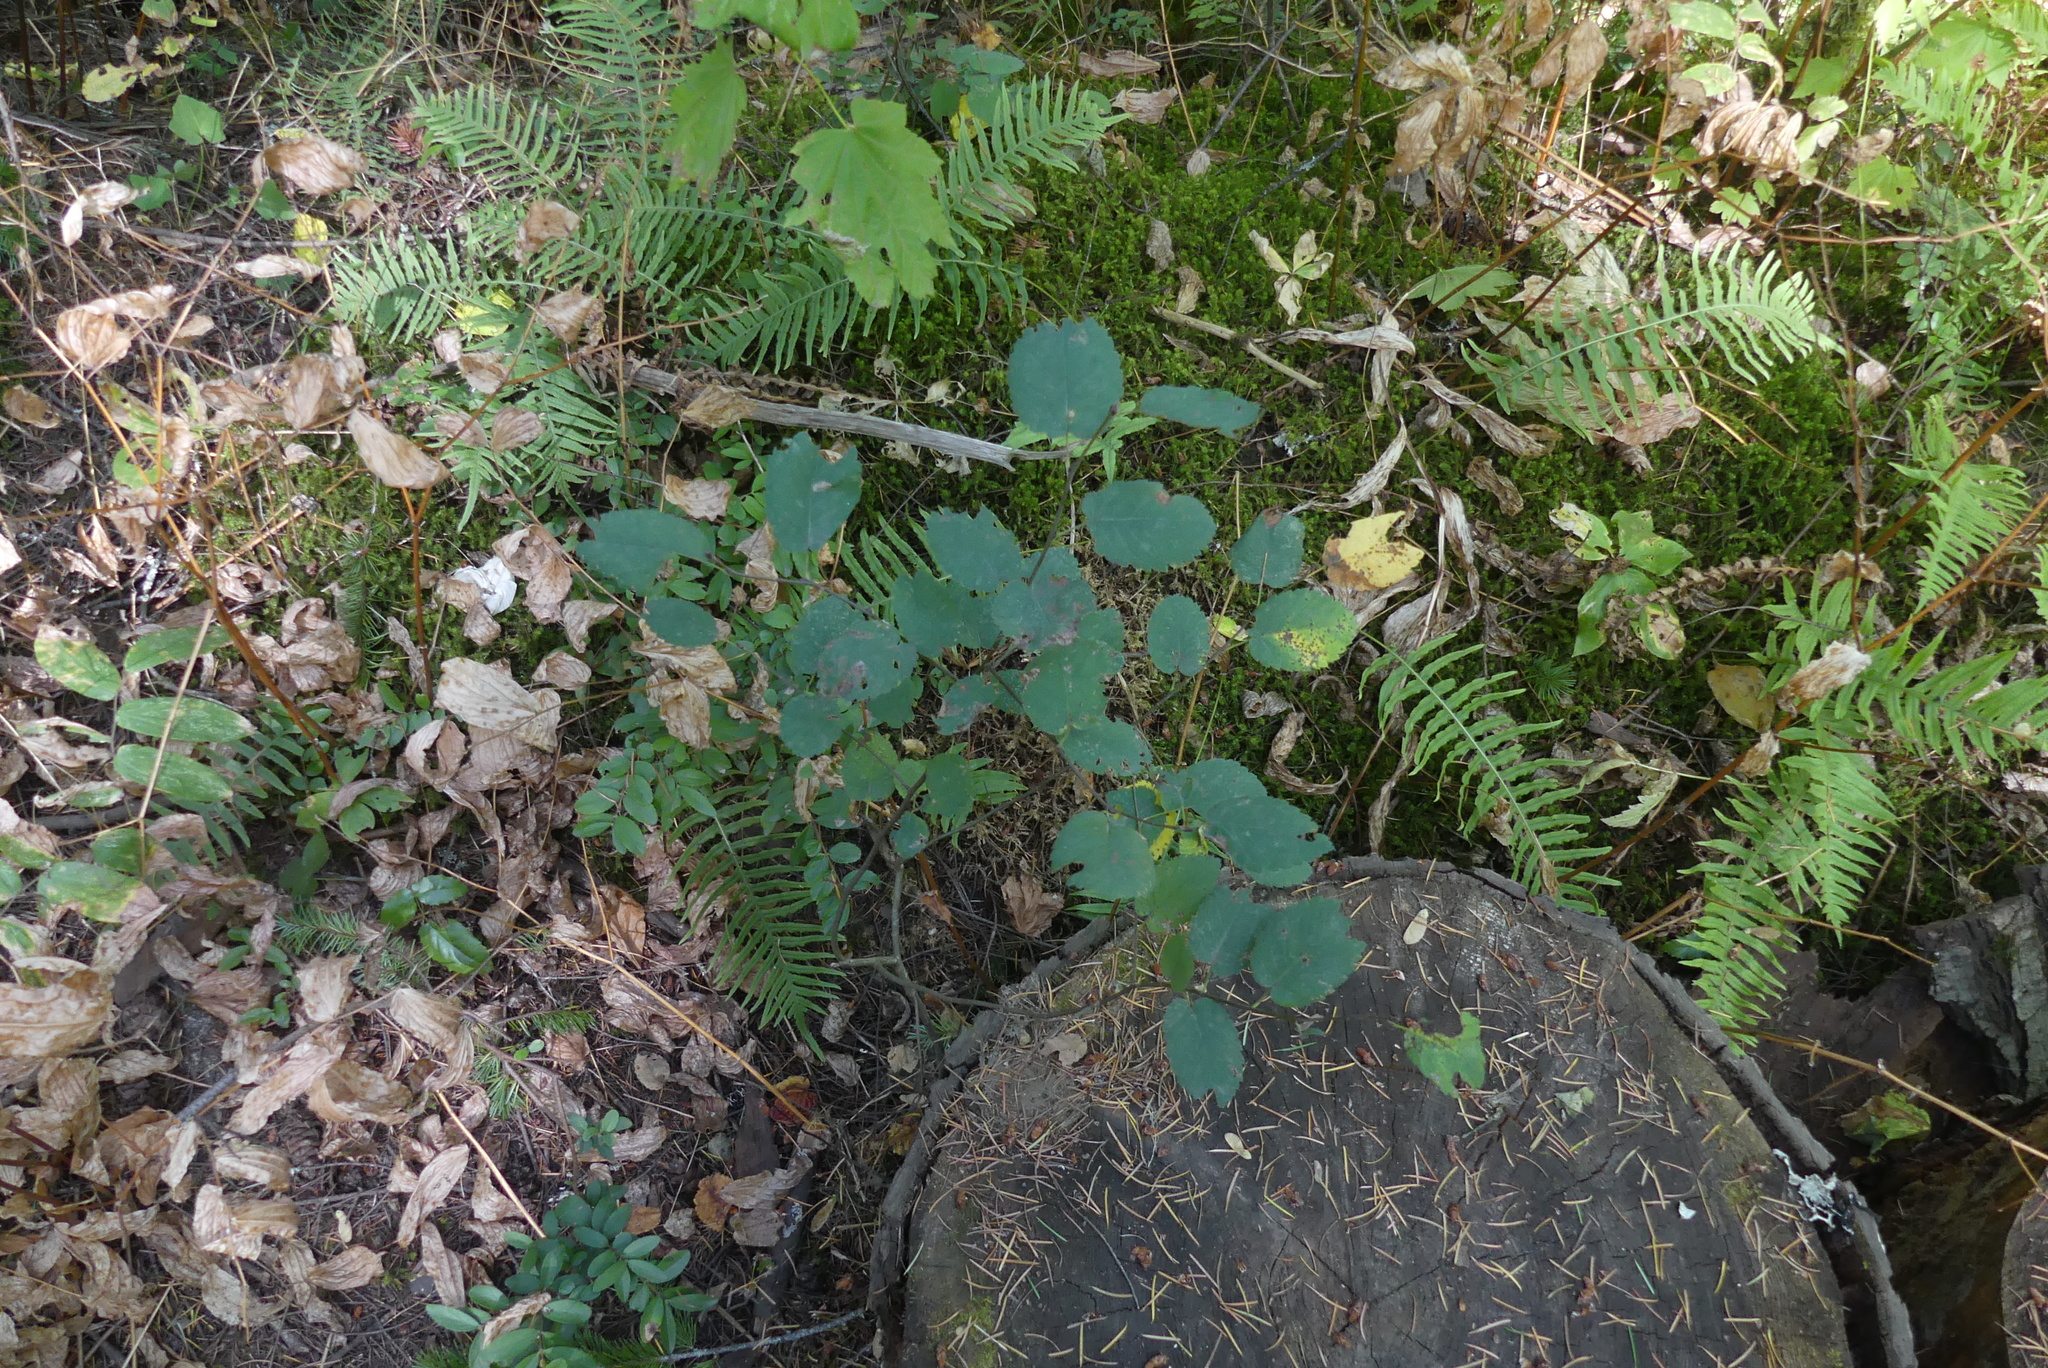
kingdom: Plantae
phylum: Tracheophyta
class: Magnoliopsida
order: Rosales
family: Rosaceae
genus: Amelanchier
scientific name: Amelanchier alnifolia
